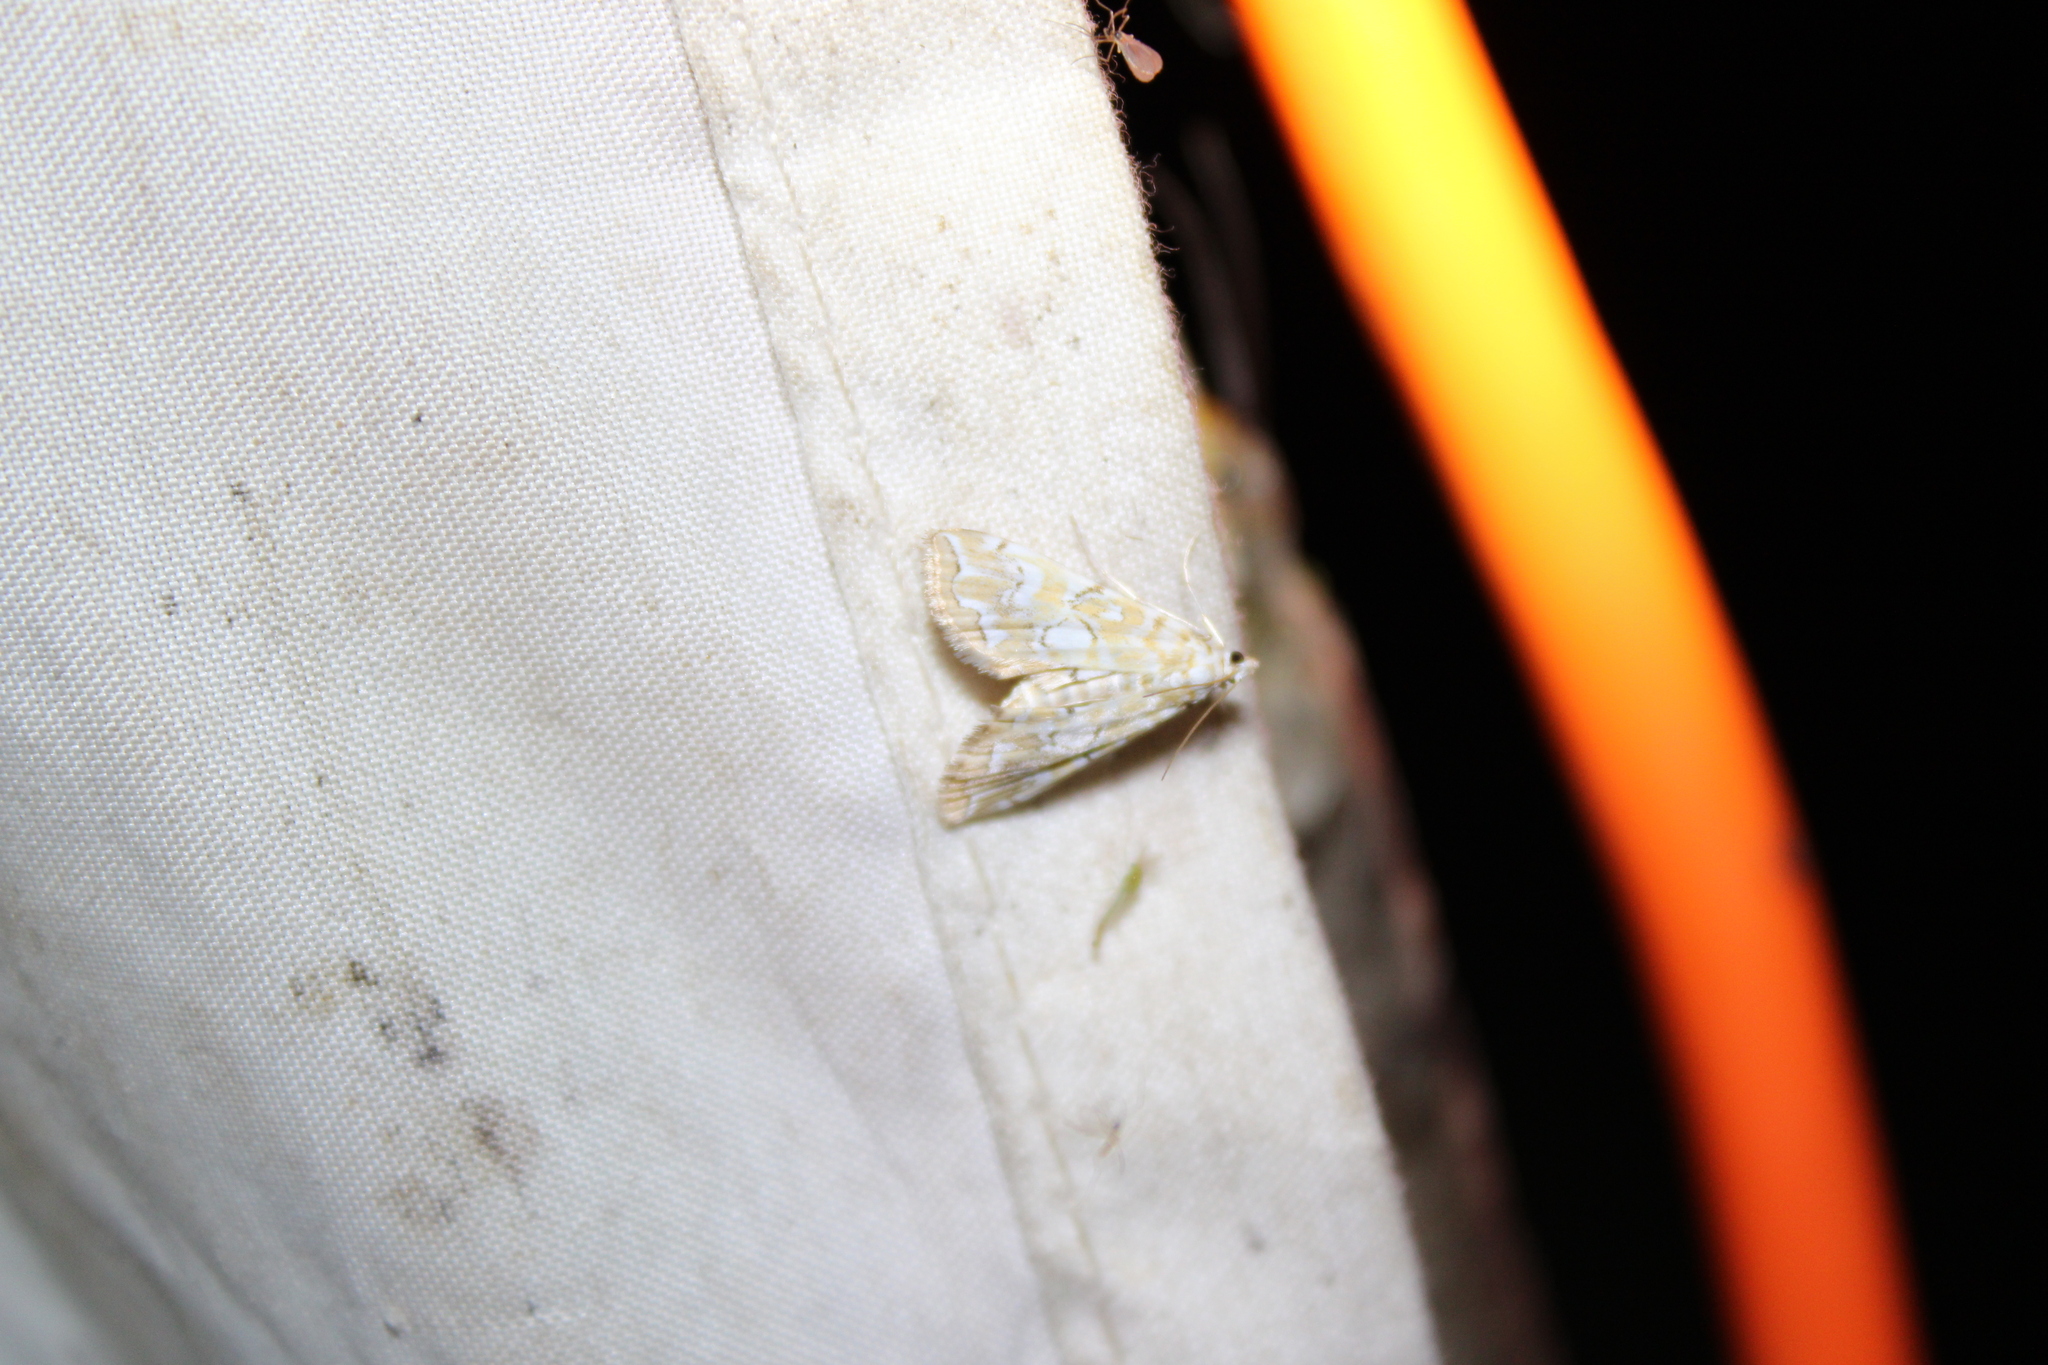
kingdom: Animalia
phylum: Arthropoda
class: Insecta
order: Lepidoptera
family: Crambidae
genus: Elophila
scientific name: Elophila icciusalis
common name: Pondside pyralid moth
